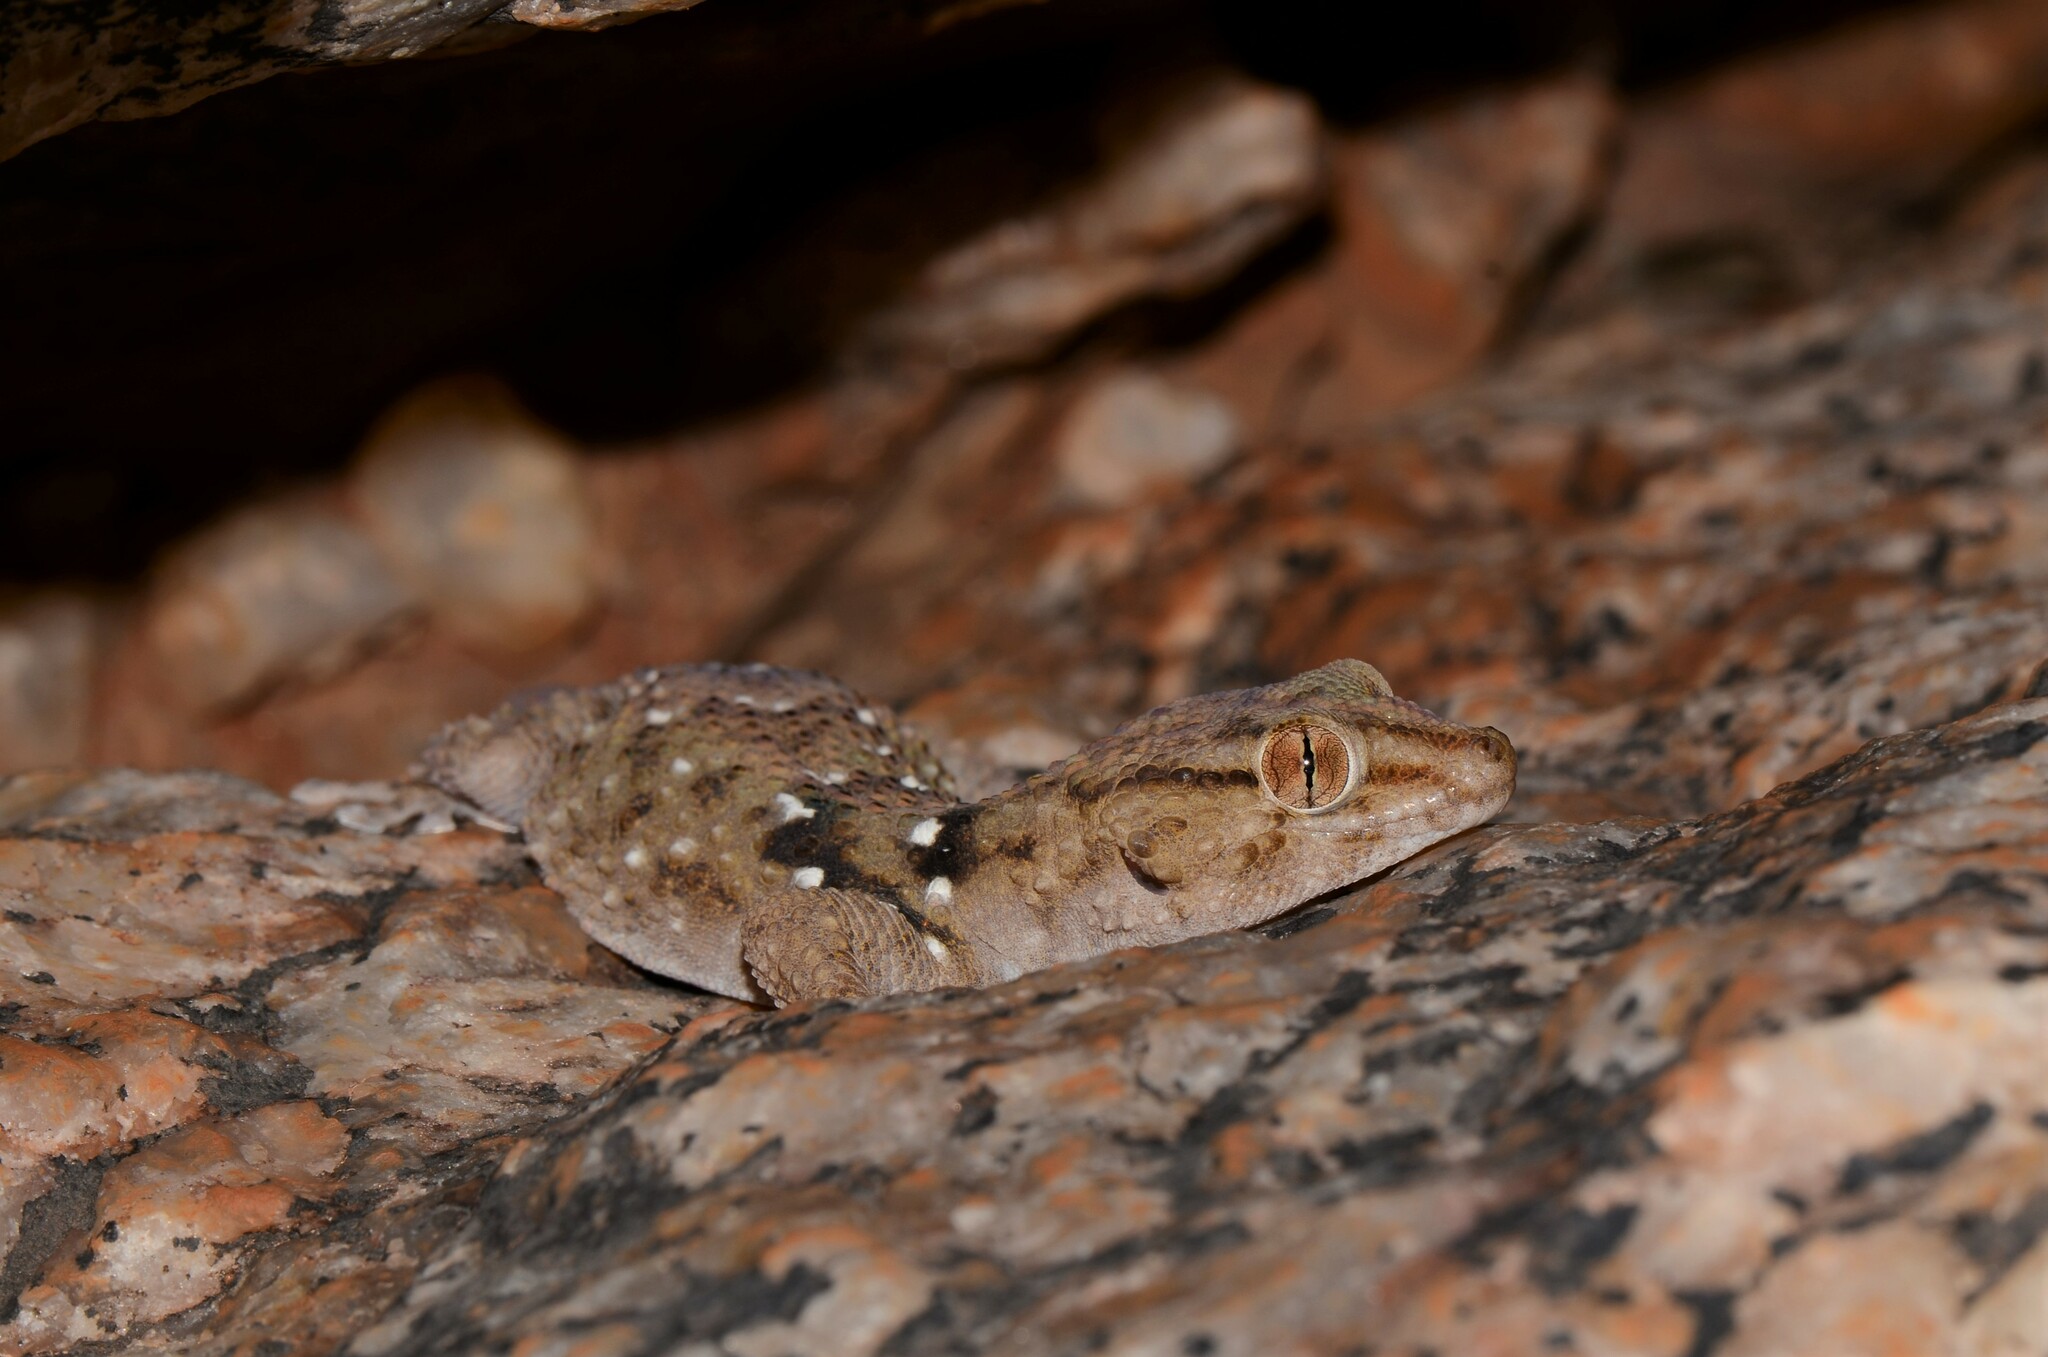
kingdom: Animalia
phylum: Chordata
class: Squamata
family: Gekkonidae
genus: Chondrodactylus
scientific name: Chondrodactylus laevigatus
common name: Fischer's thick-toed gecko
